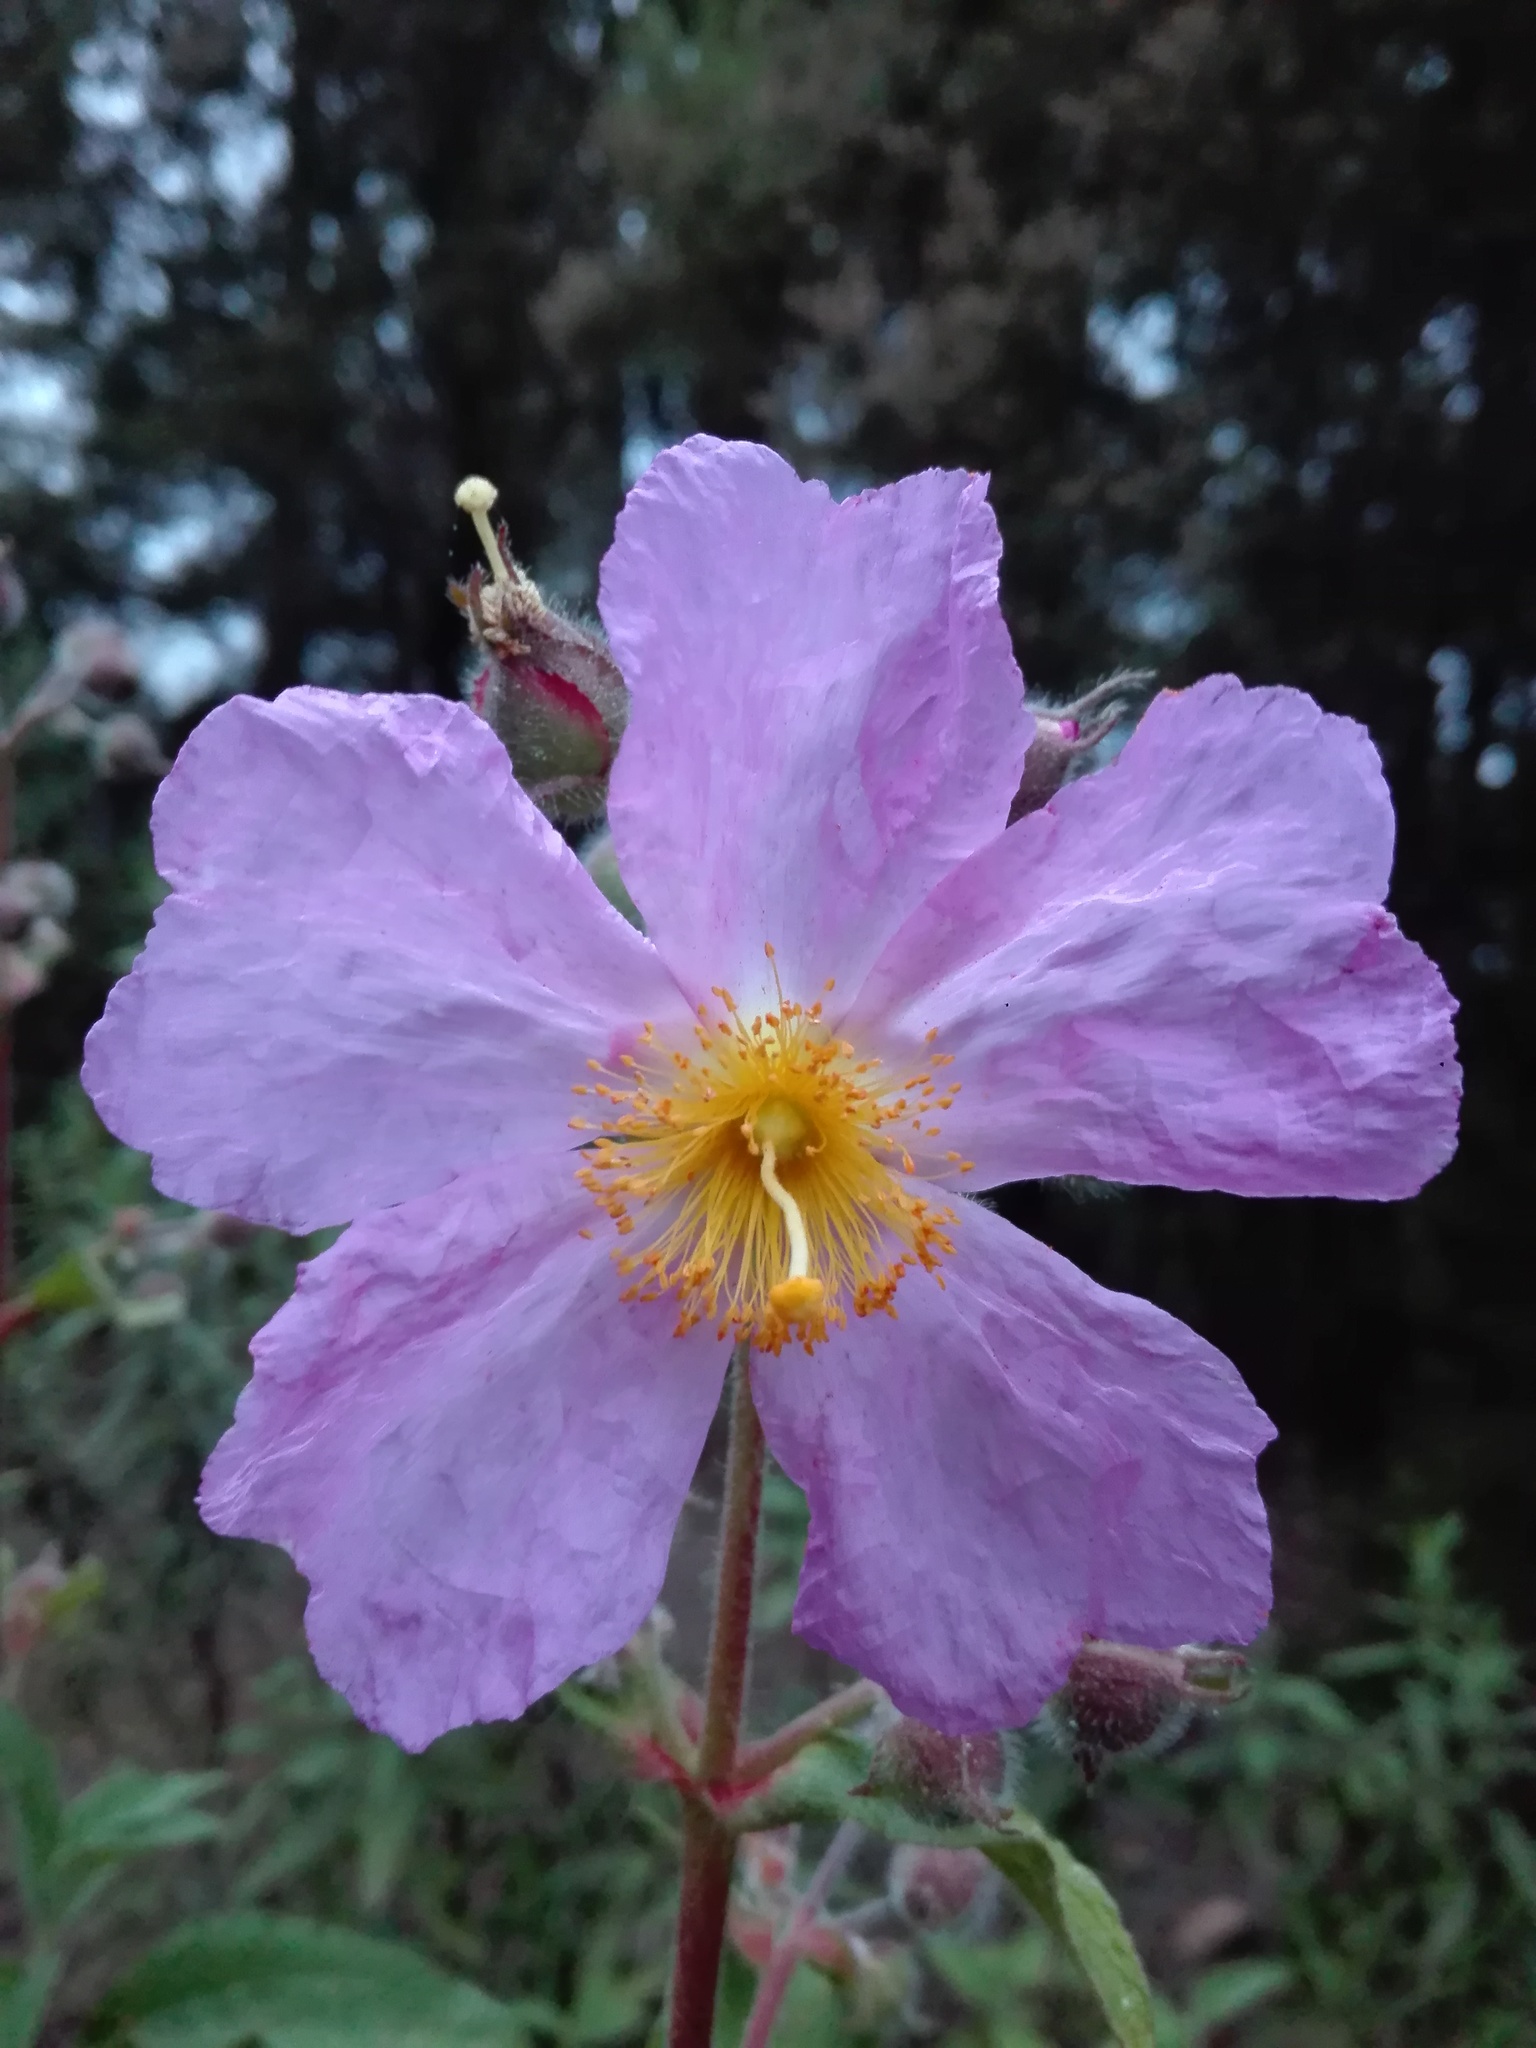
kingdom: Plantae
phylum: Tracheophyta
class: Magnoliopsida
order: Malvales
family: Cistaceae
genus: Cistus
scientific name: Cistus symphytifolius
